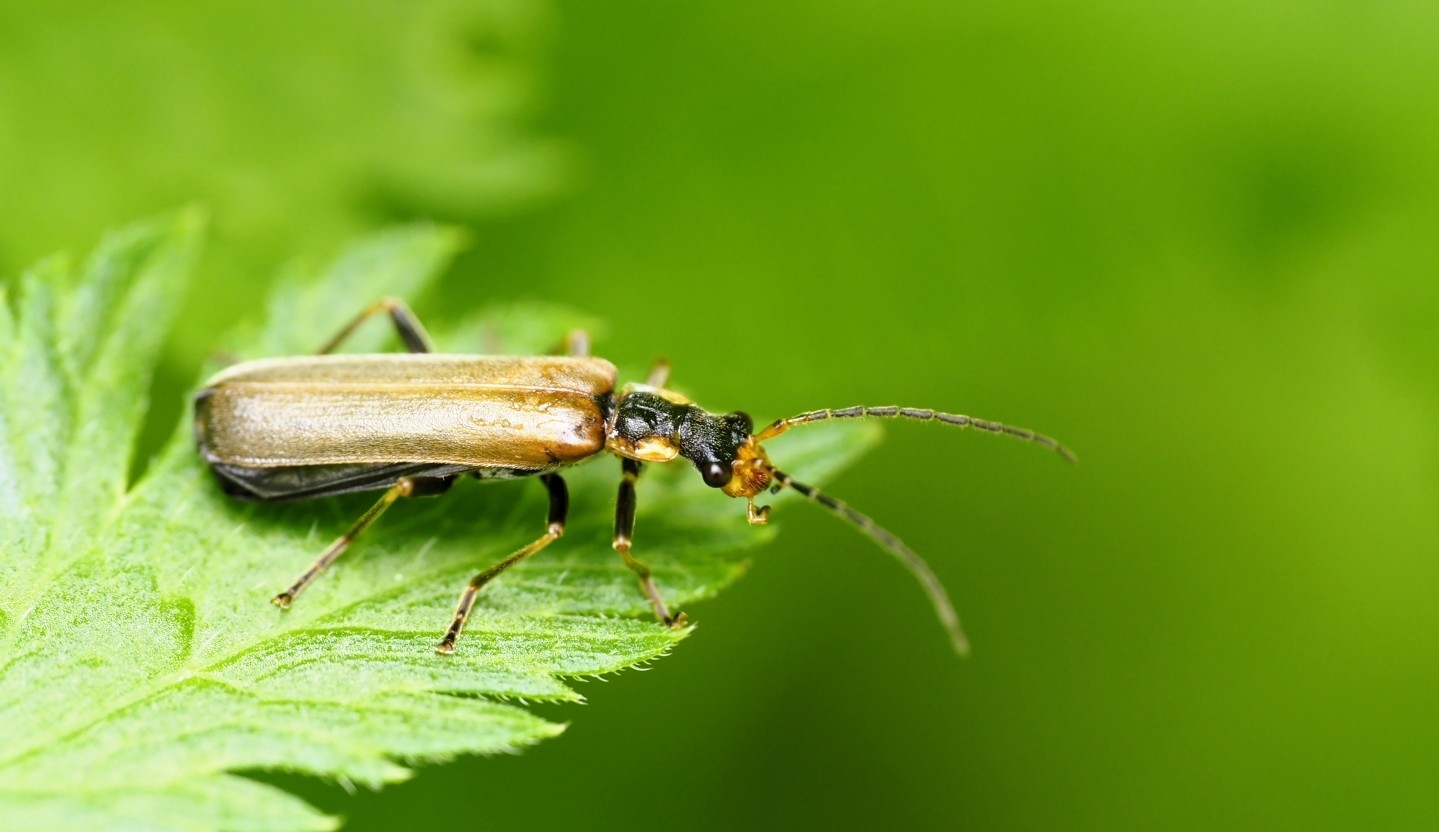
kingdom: Animalia
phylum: Arthropoda
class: Insecta
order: Coleoptera
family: Cantharidae
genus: Podabrus
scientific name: Podabrus alpinus
